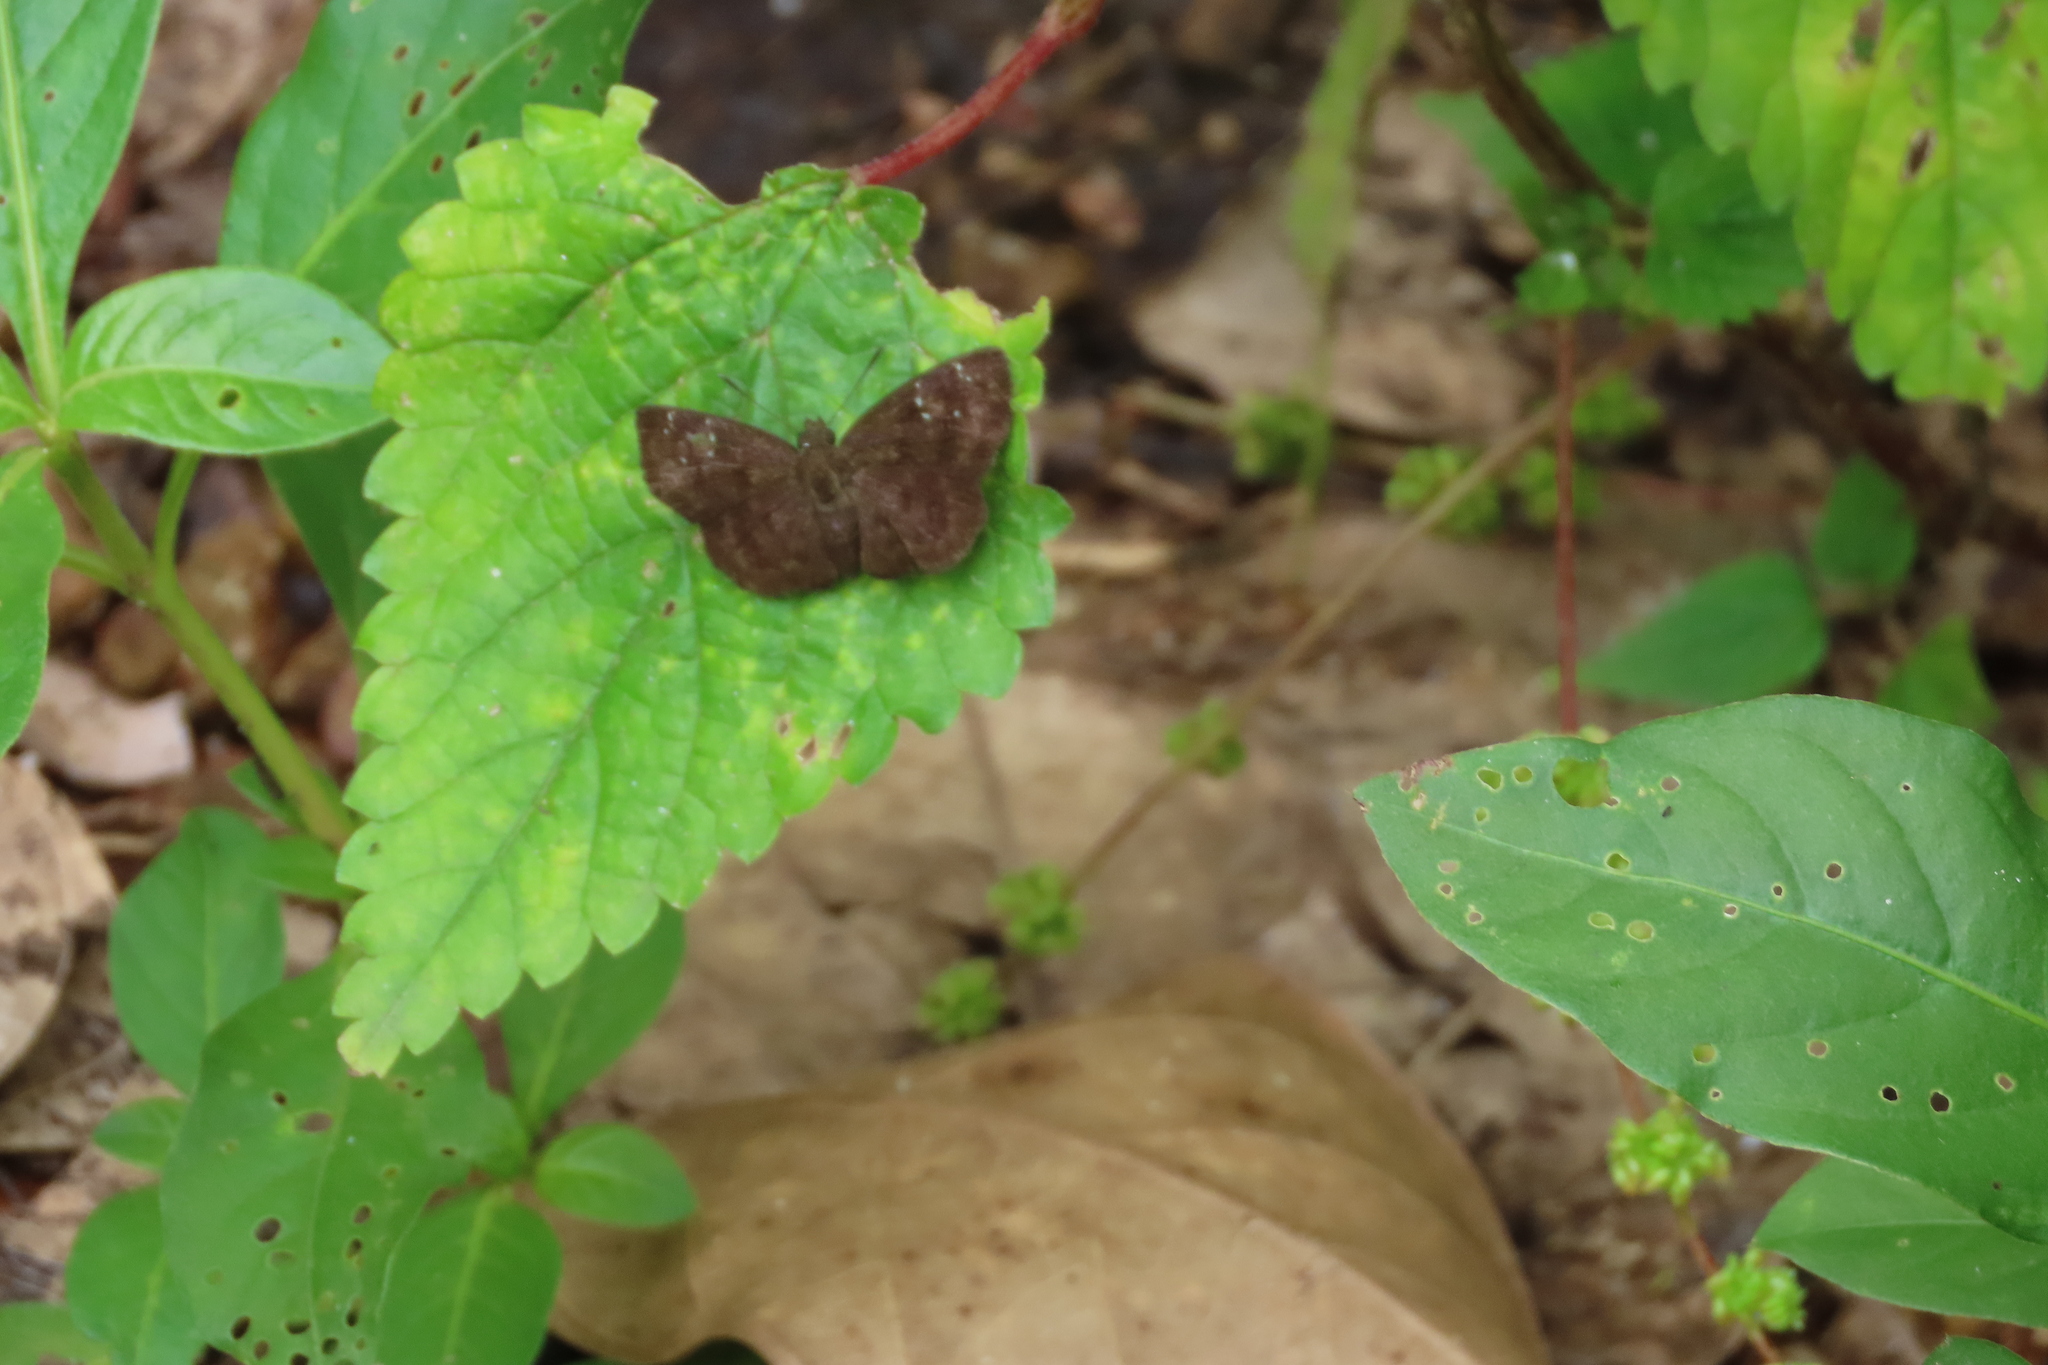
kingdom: Animalia
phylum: Arthropoda
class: Insecta
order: Lepidoptera
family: Hesperiidae
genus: Sarangesa
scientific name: Sarangesa dasahara
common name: Common small flat
